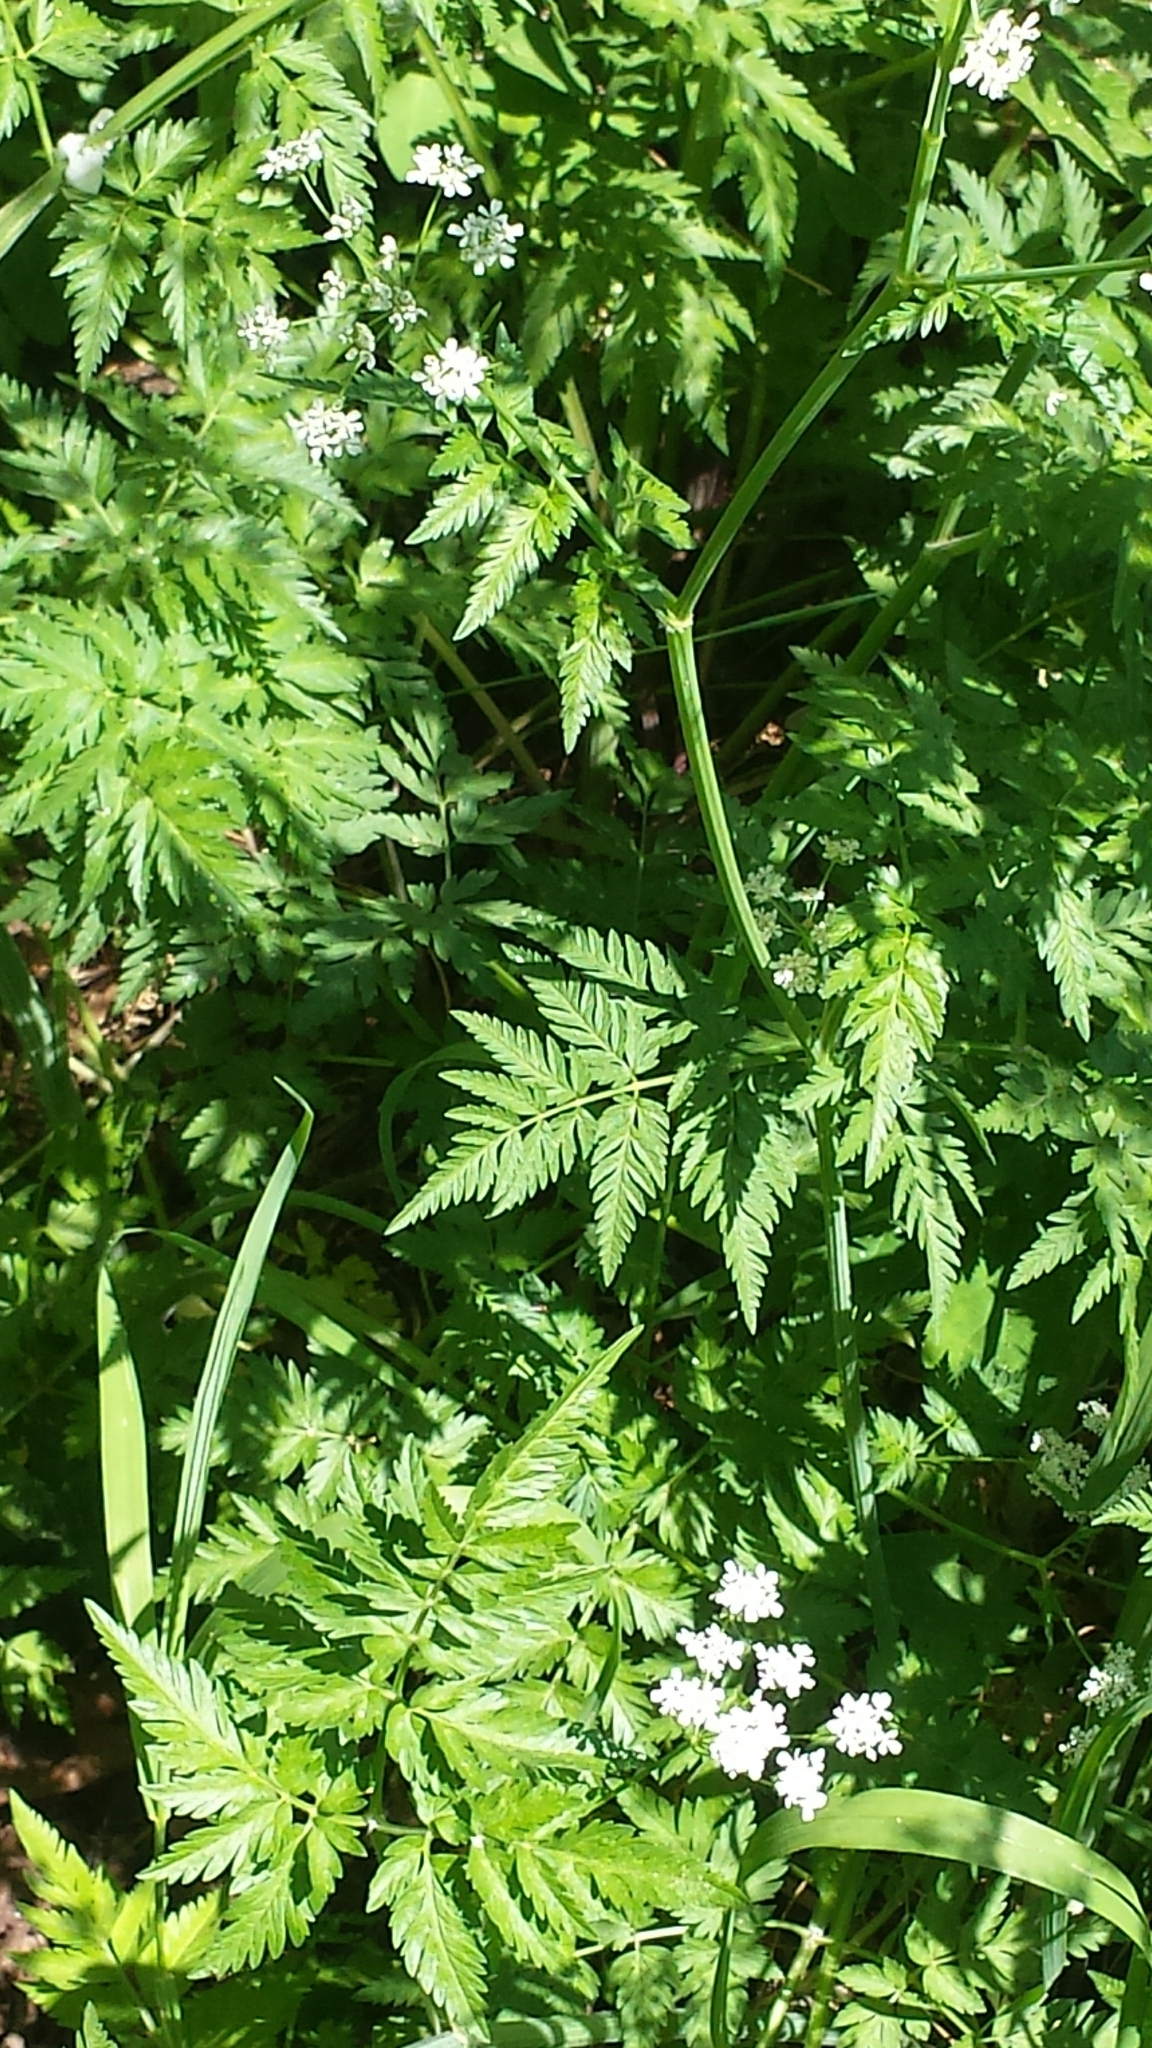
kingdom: Plantae
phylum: Tracheophyta
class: Magnoliopsida
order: Apiales
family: Apiaceae
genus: Anthriscus
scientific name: Anthriscus sylvestris
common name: Cow parsley
